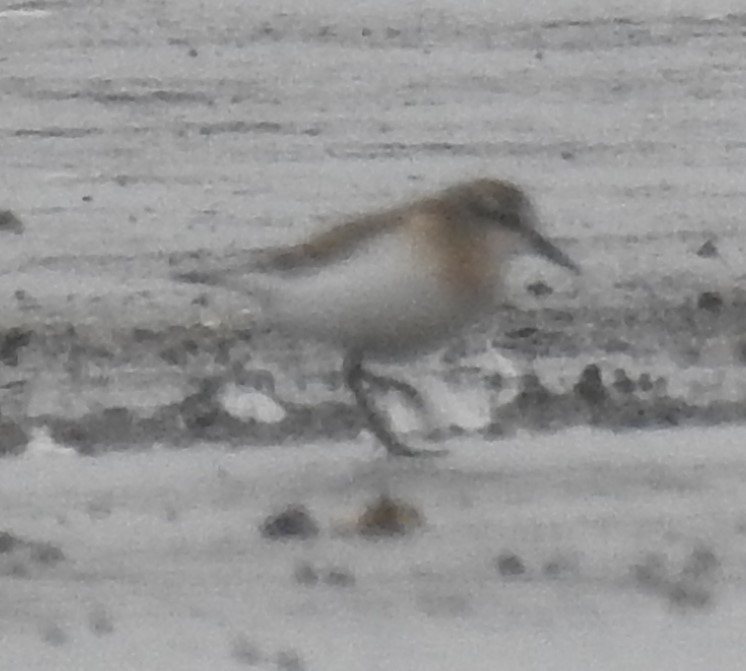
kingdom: Animalia
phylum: Chordata
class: Aves
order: Charadriiformes
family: Scolopacidae
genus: Calidris
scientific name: Calidris pusilla
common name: Semipalmated sandpiper
